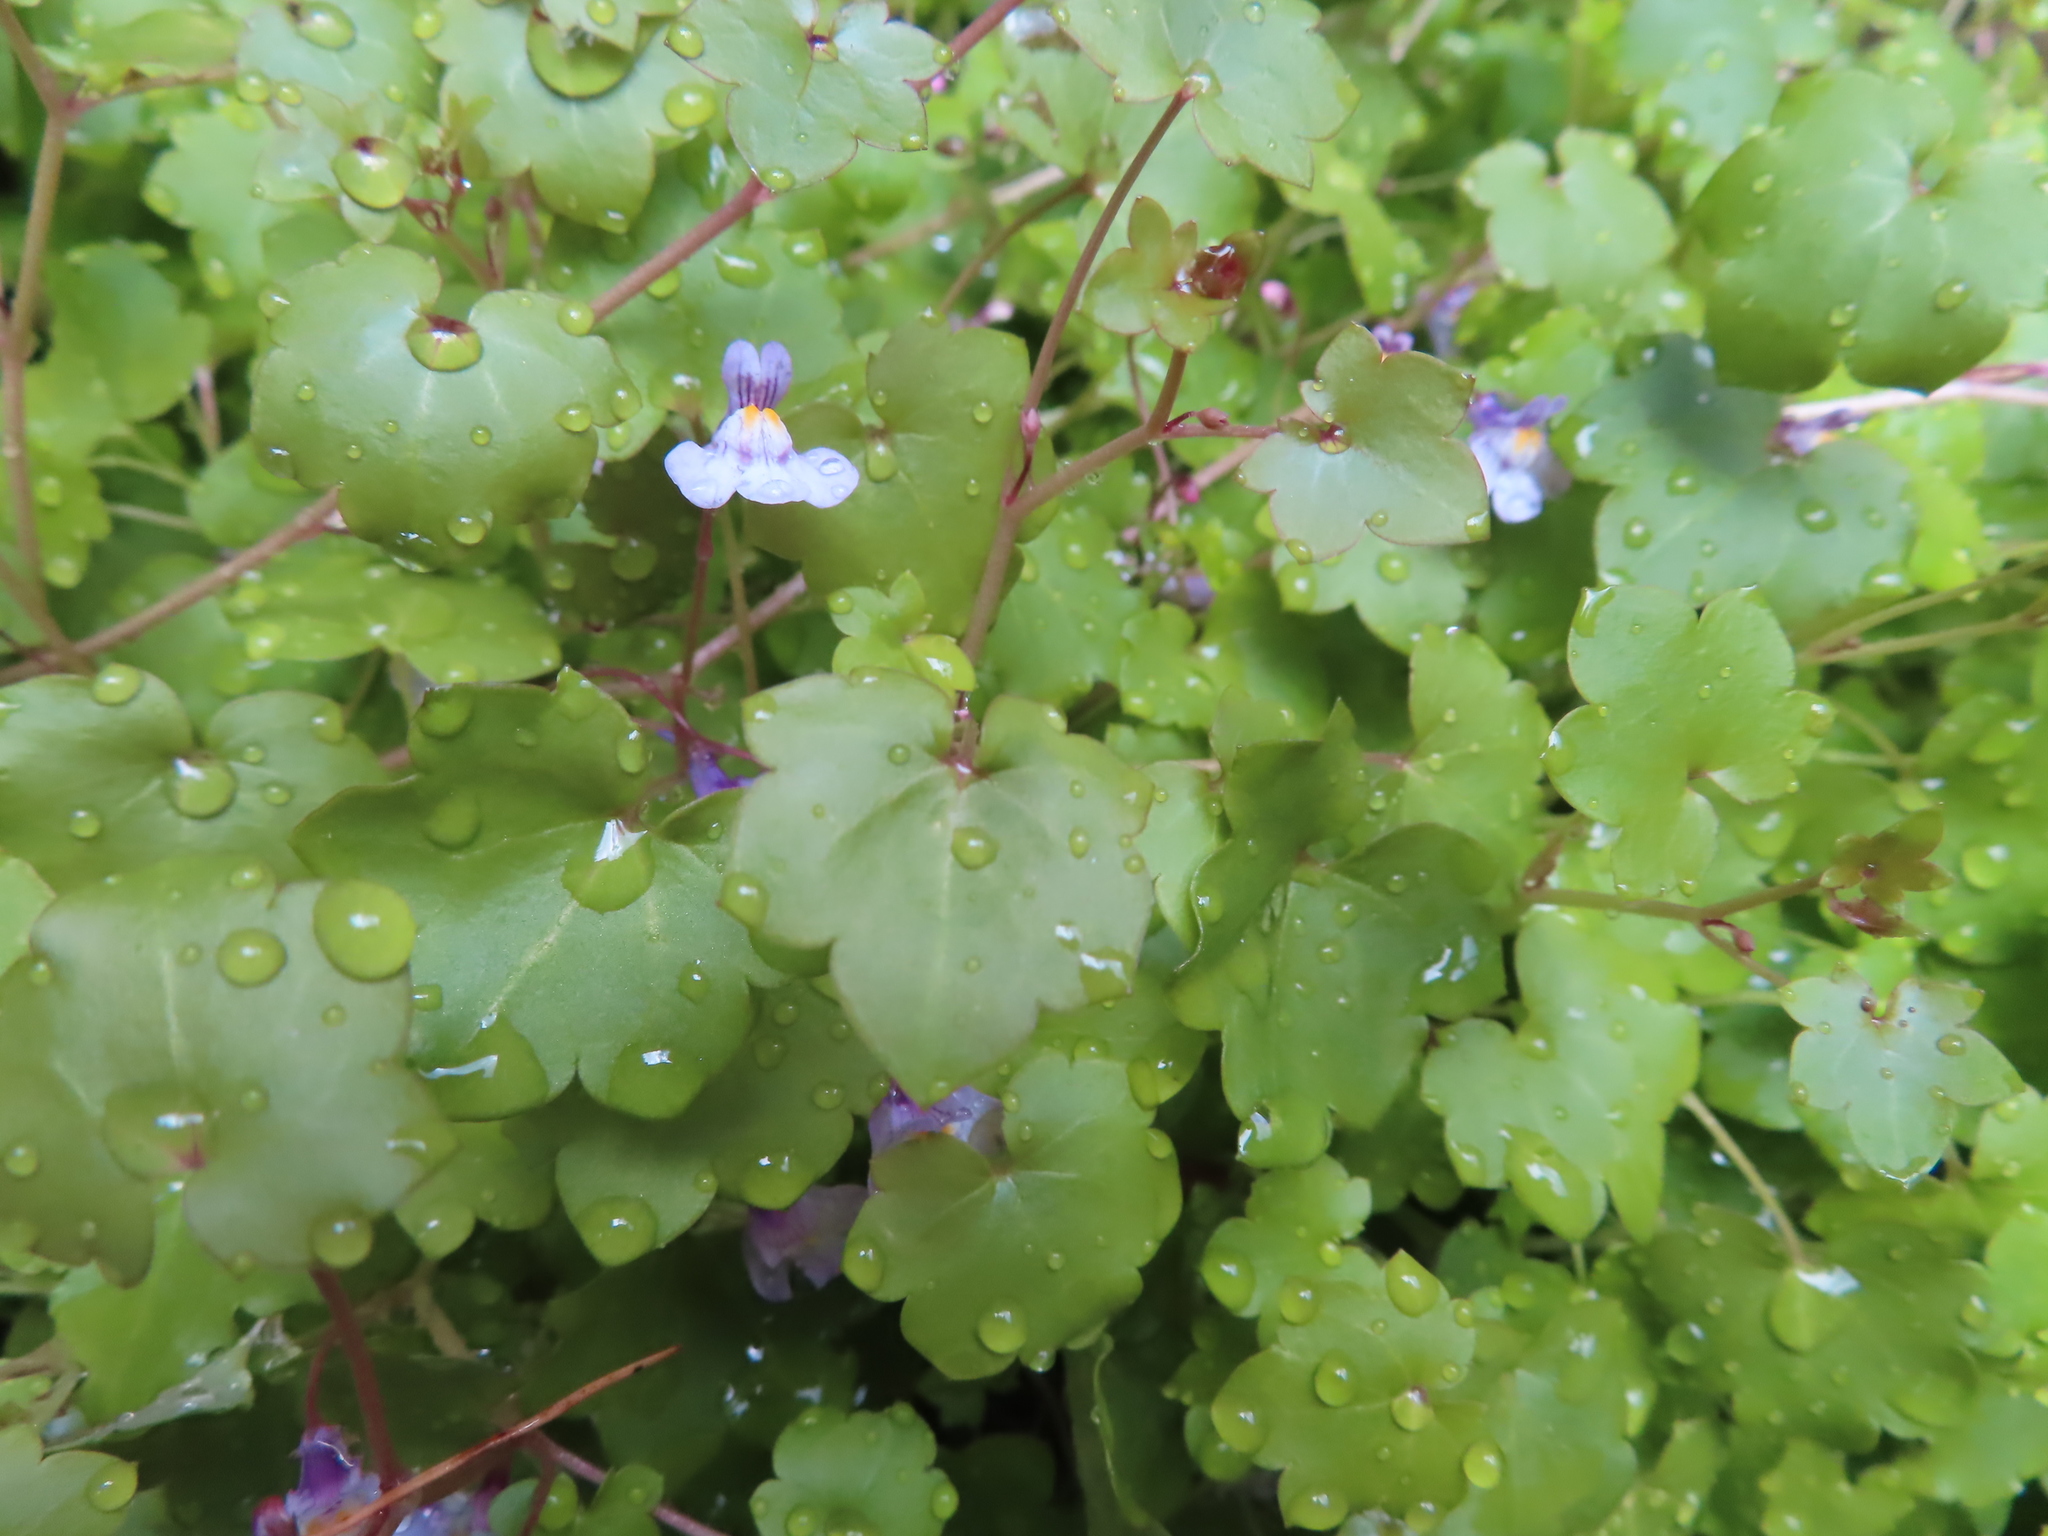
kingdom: Plantae
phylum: Tracheophyta
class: Magnoliopsida
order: Lamiales
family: Plantaginaceae
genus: Cymbalaria
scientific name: Cymbalaria muralis
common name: Ivy-leaved toadflax
